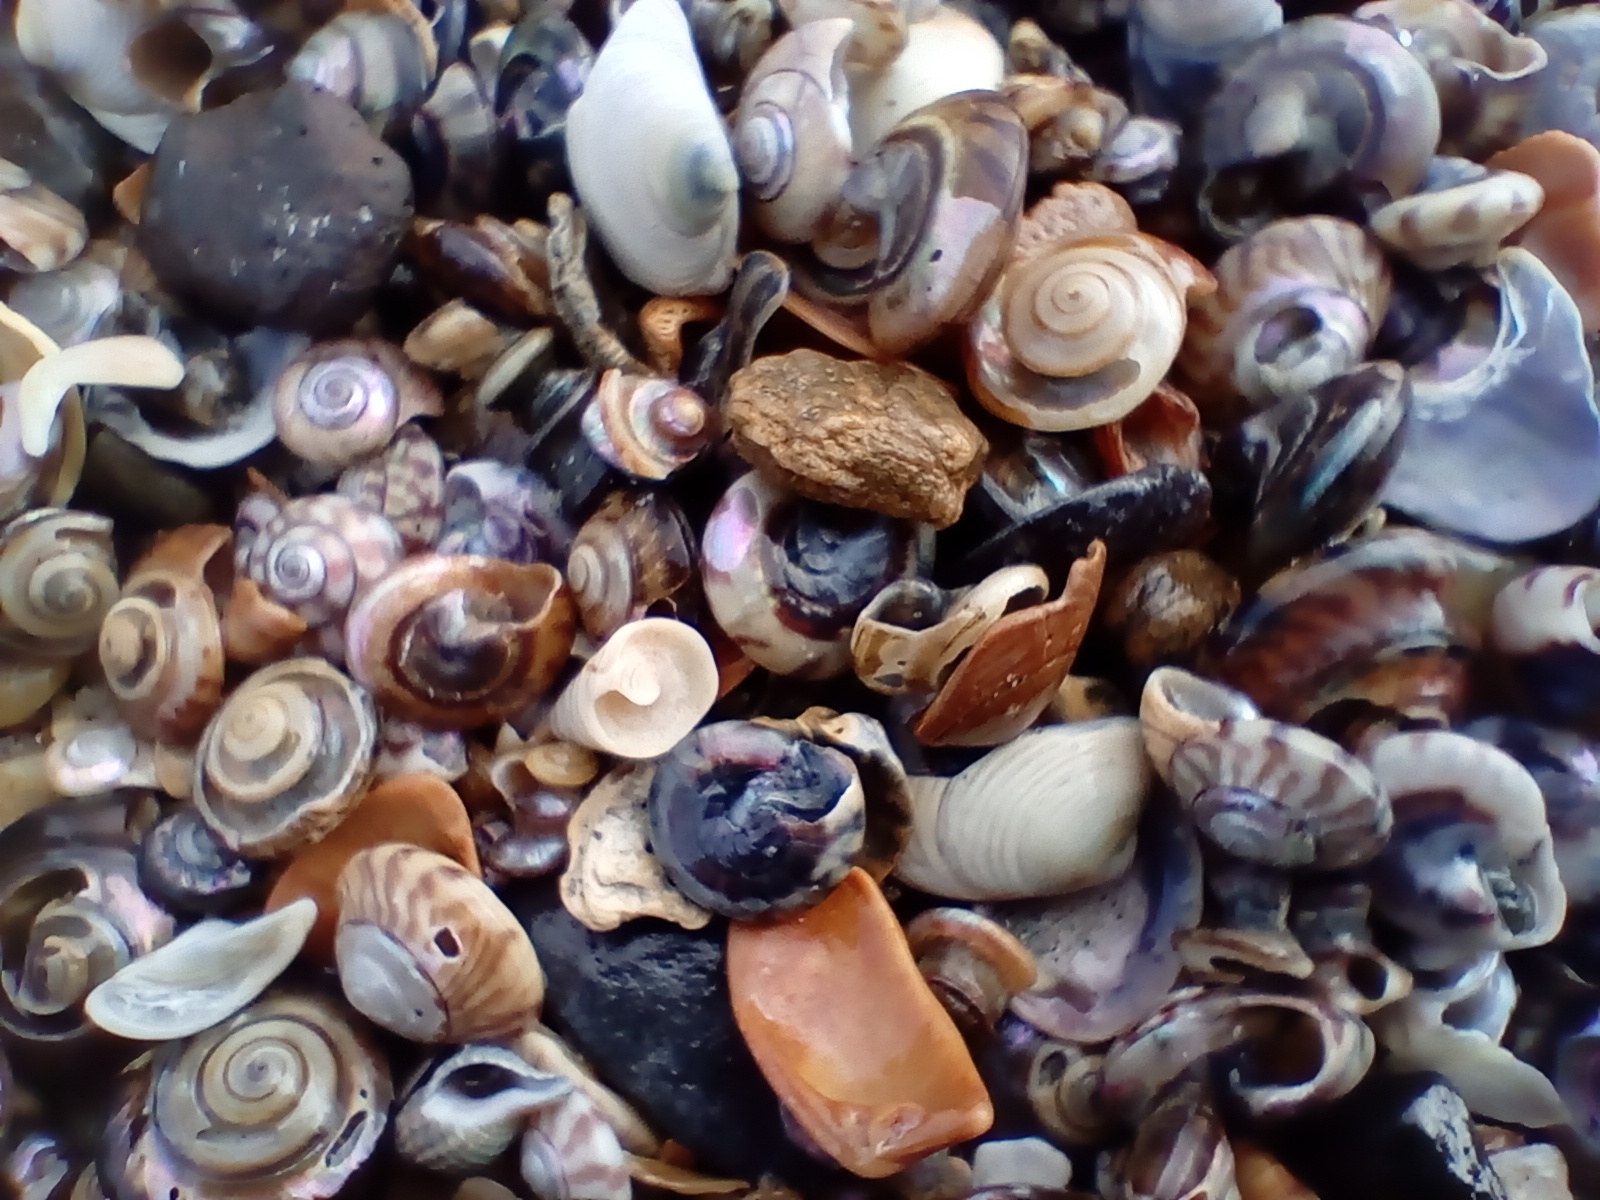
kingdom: Animalia
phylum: Mollusca
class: Gastropoda
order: Trochida
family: Trochidae
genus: Zethalia
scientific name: Zethalia zelandica
